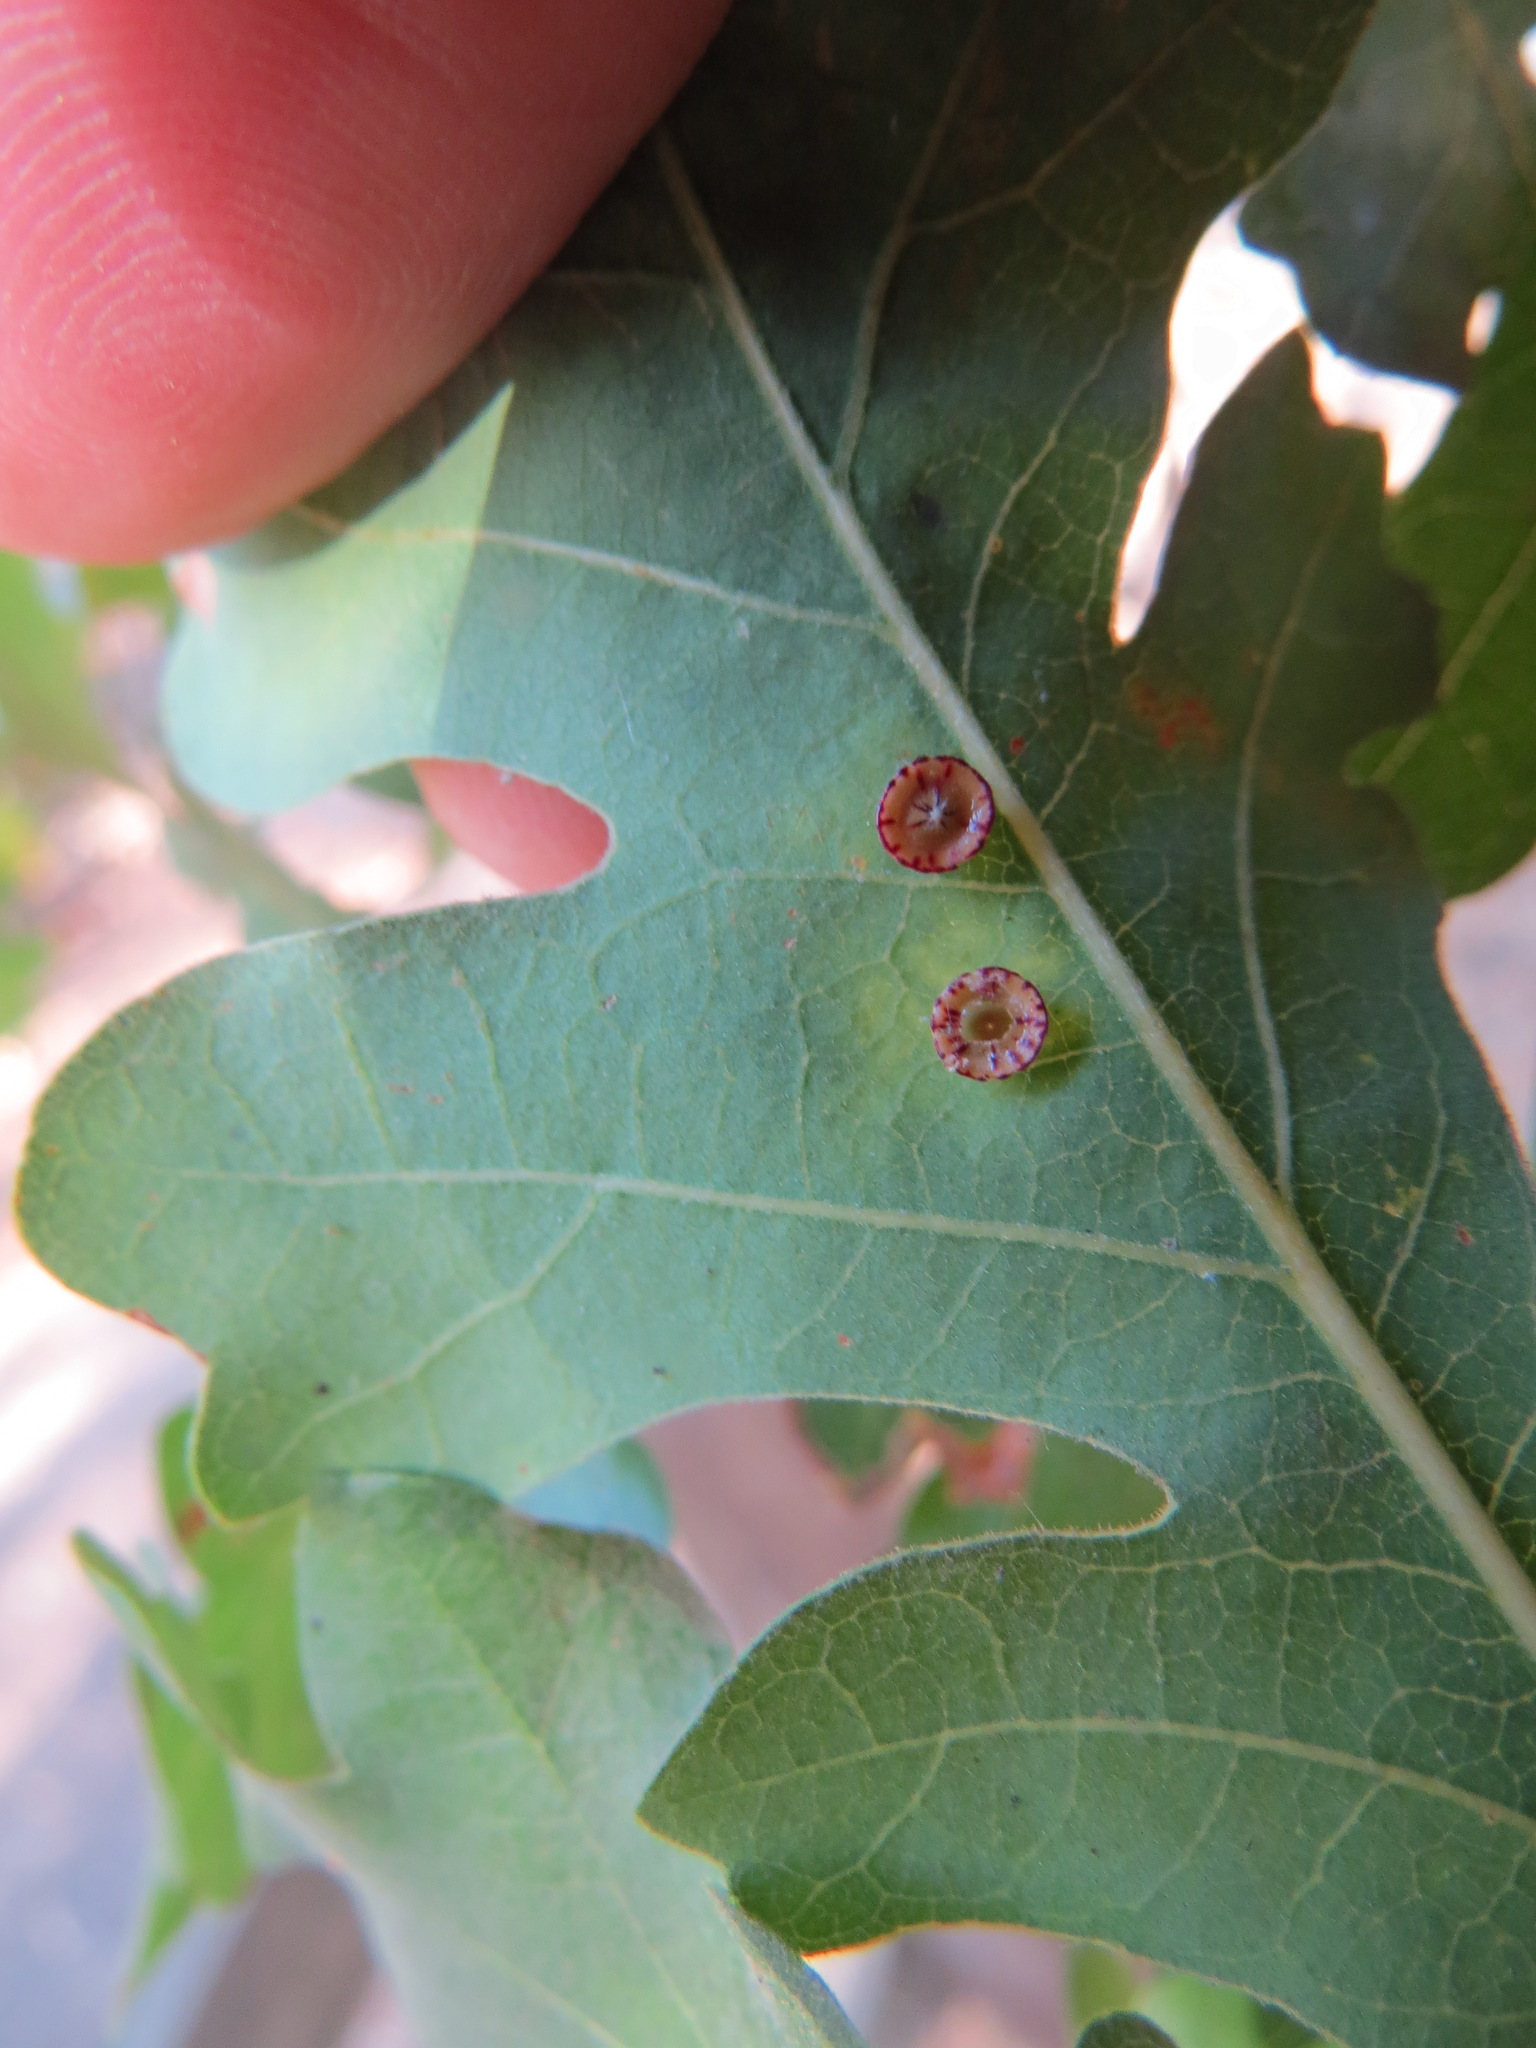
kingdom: Animalia
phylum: Arthropoda
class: Insecta
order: Hymenoptera
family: Cynipidae
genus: Andricus
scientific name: Andricus
